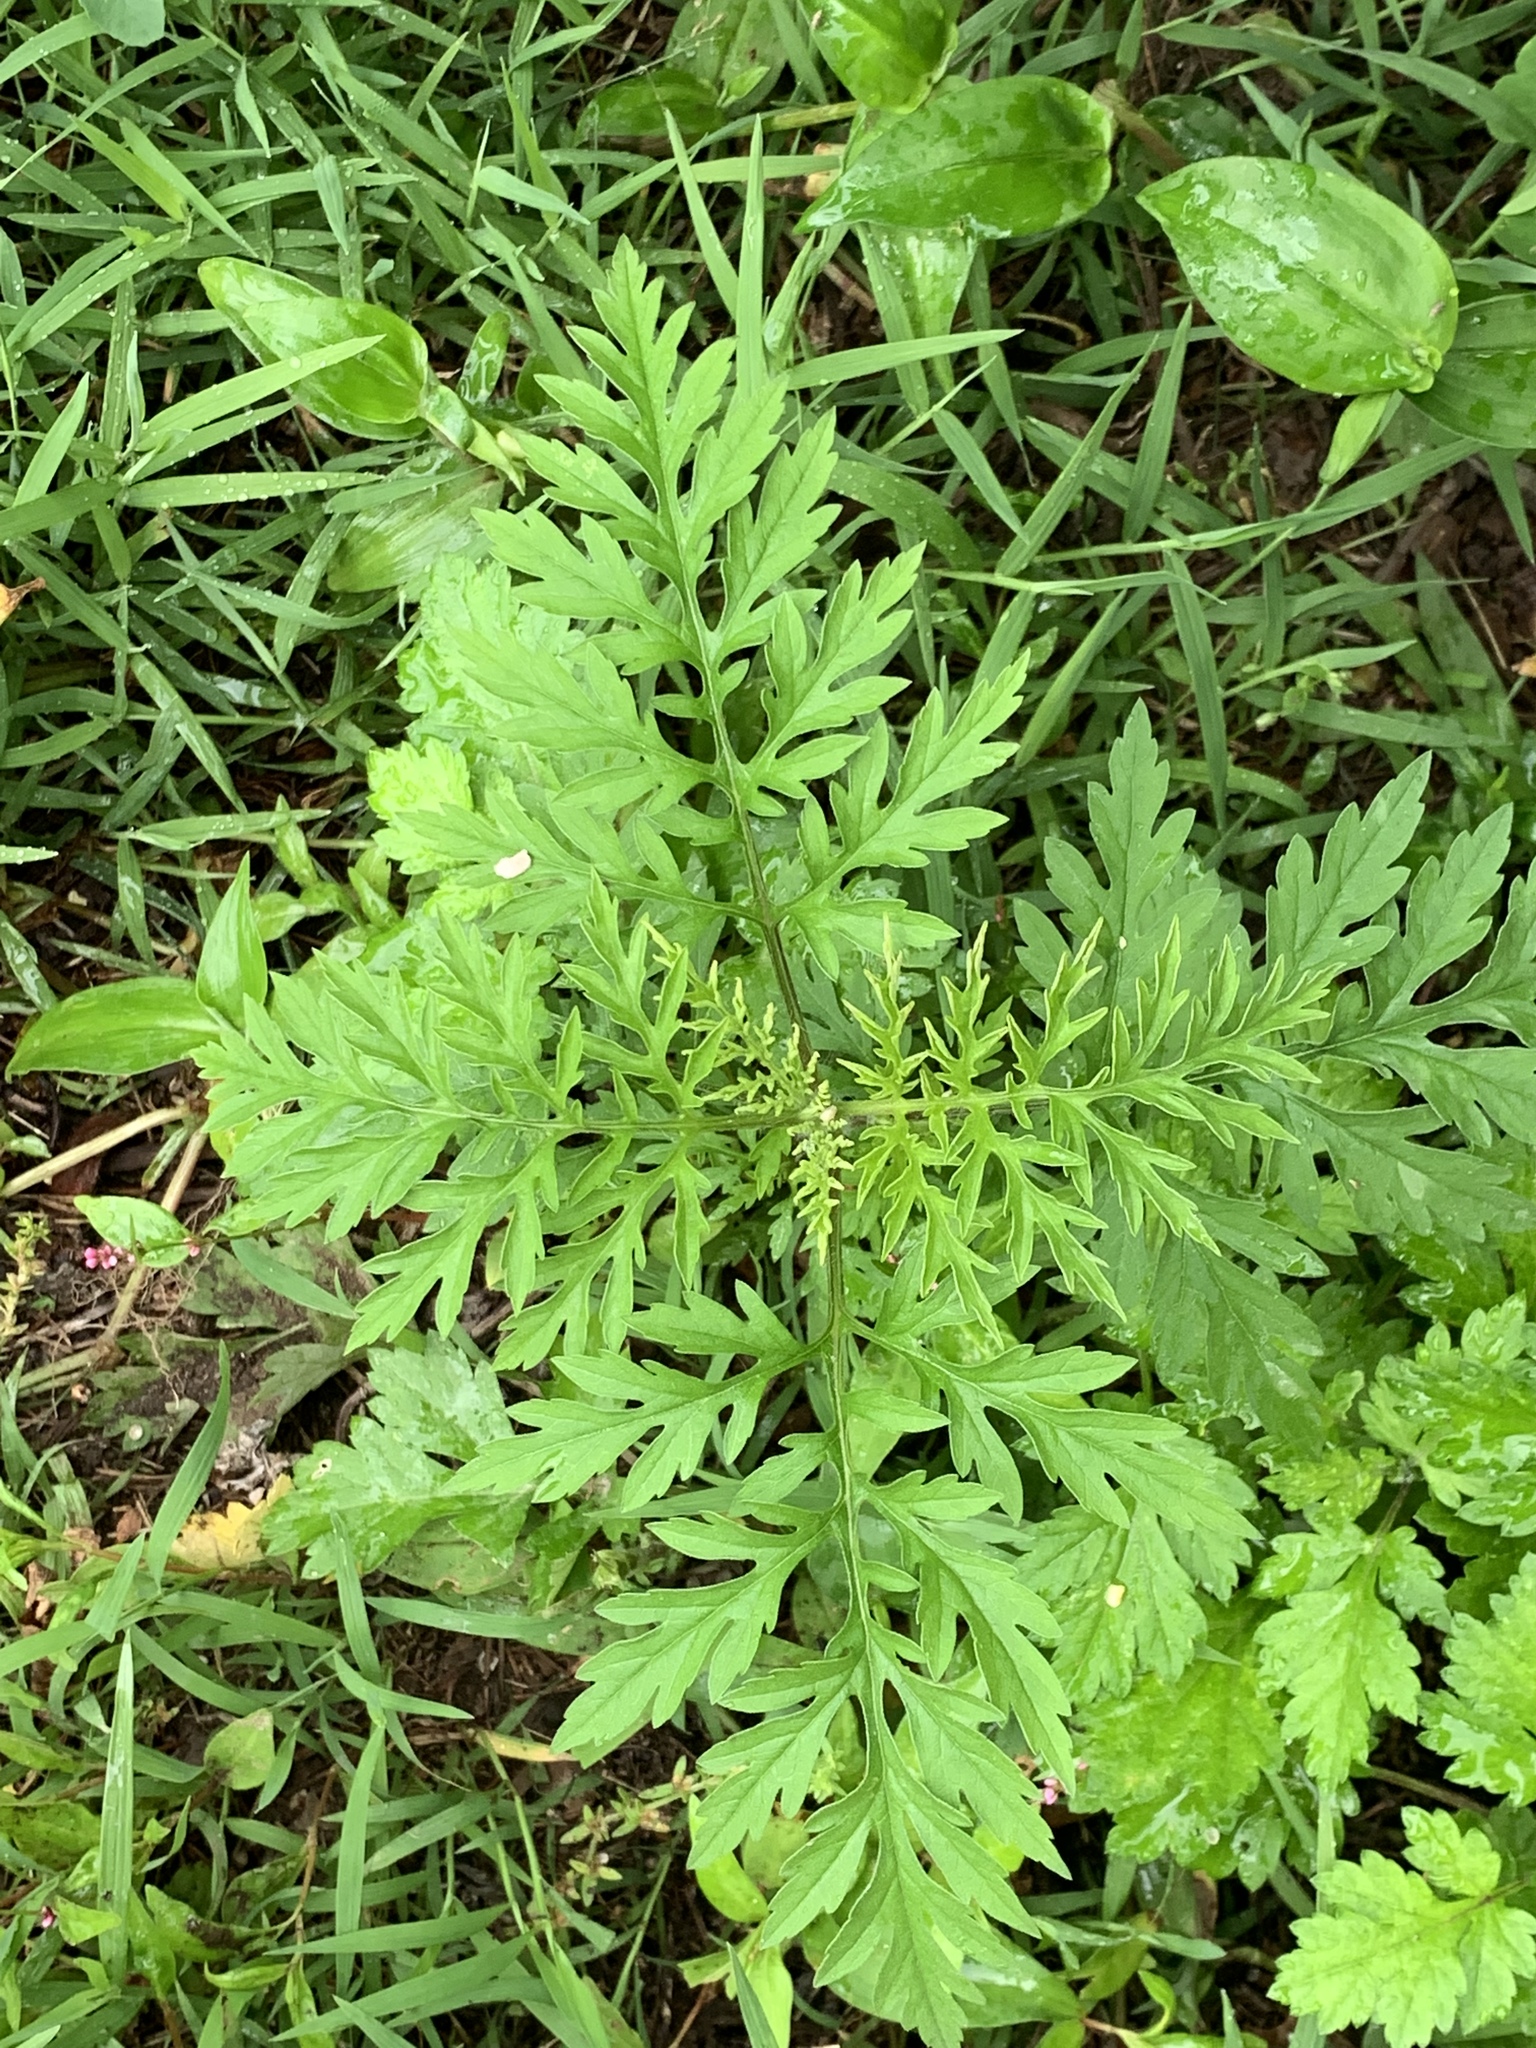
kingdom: Plantae
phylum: Tracheophyta
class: Magnoliopsida
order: Asterales
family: Asteraceae
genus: Ambrosia
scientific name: Ambrosia artemisiifolia
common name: Annual ragweed
